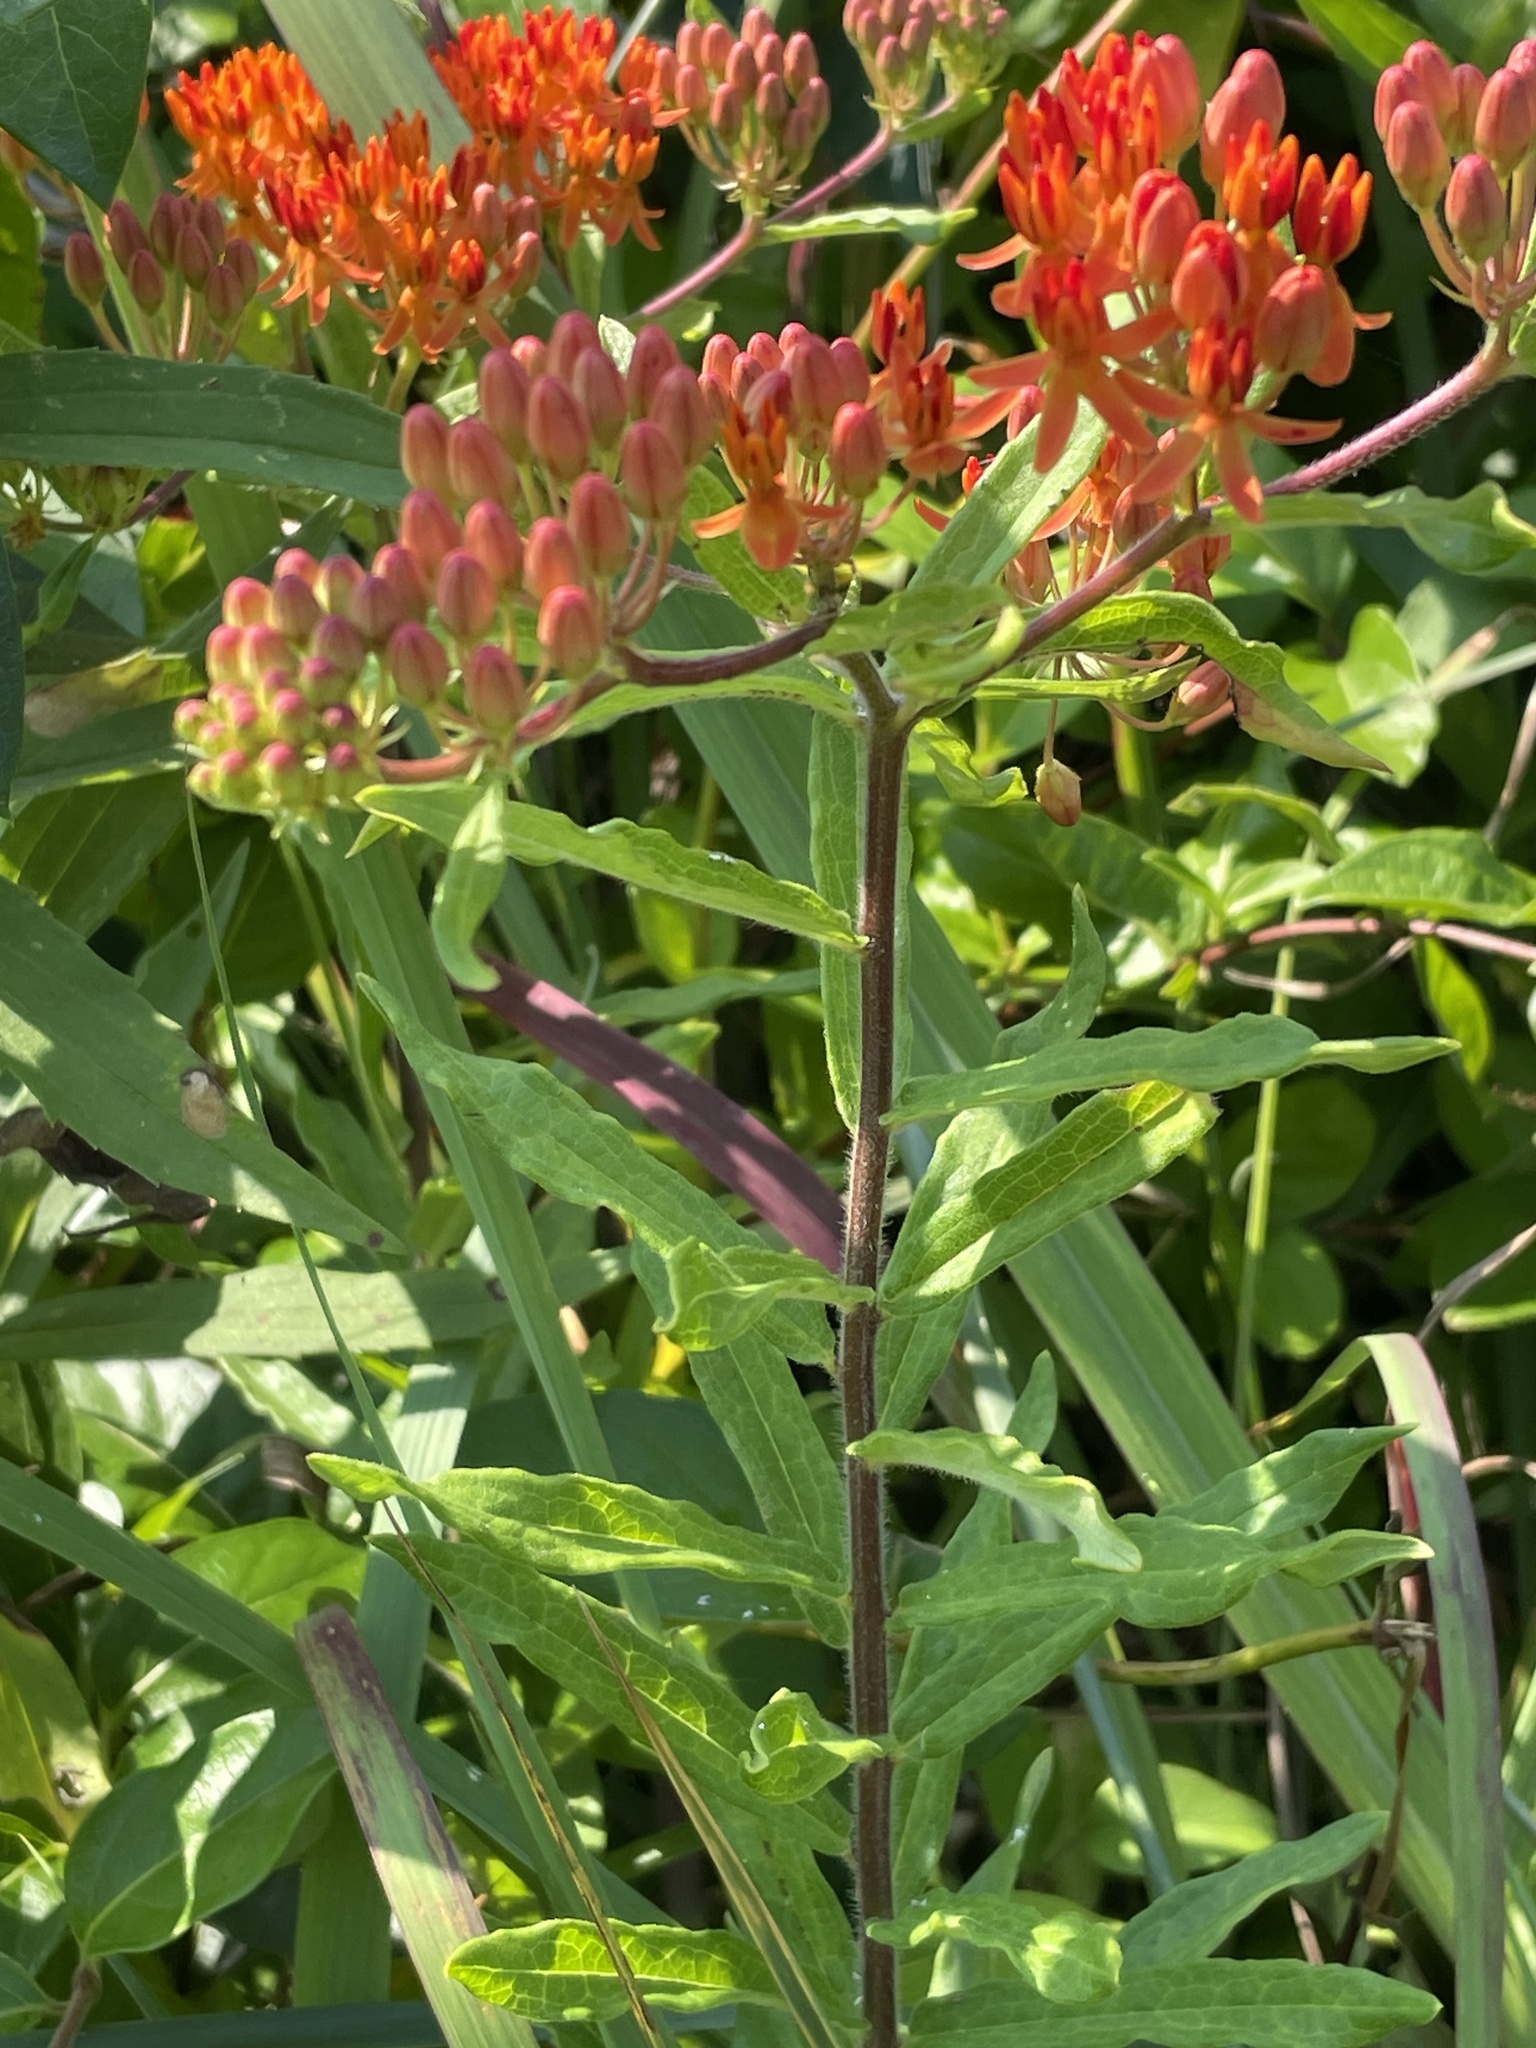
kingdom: Plantae
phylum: Tracheophyta
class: Magnoliopsida
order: Gentianales
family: Apocynaceae
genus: Asclepias
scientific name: Asclepias tuberosa
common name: Butterfly milkweed
